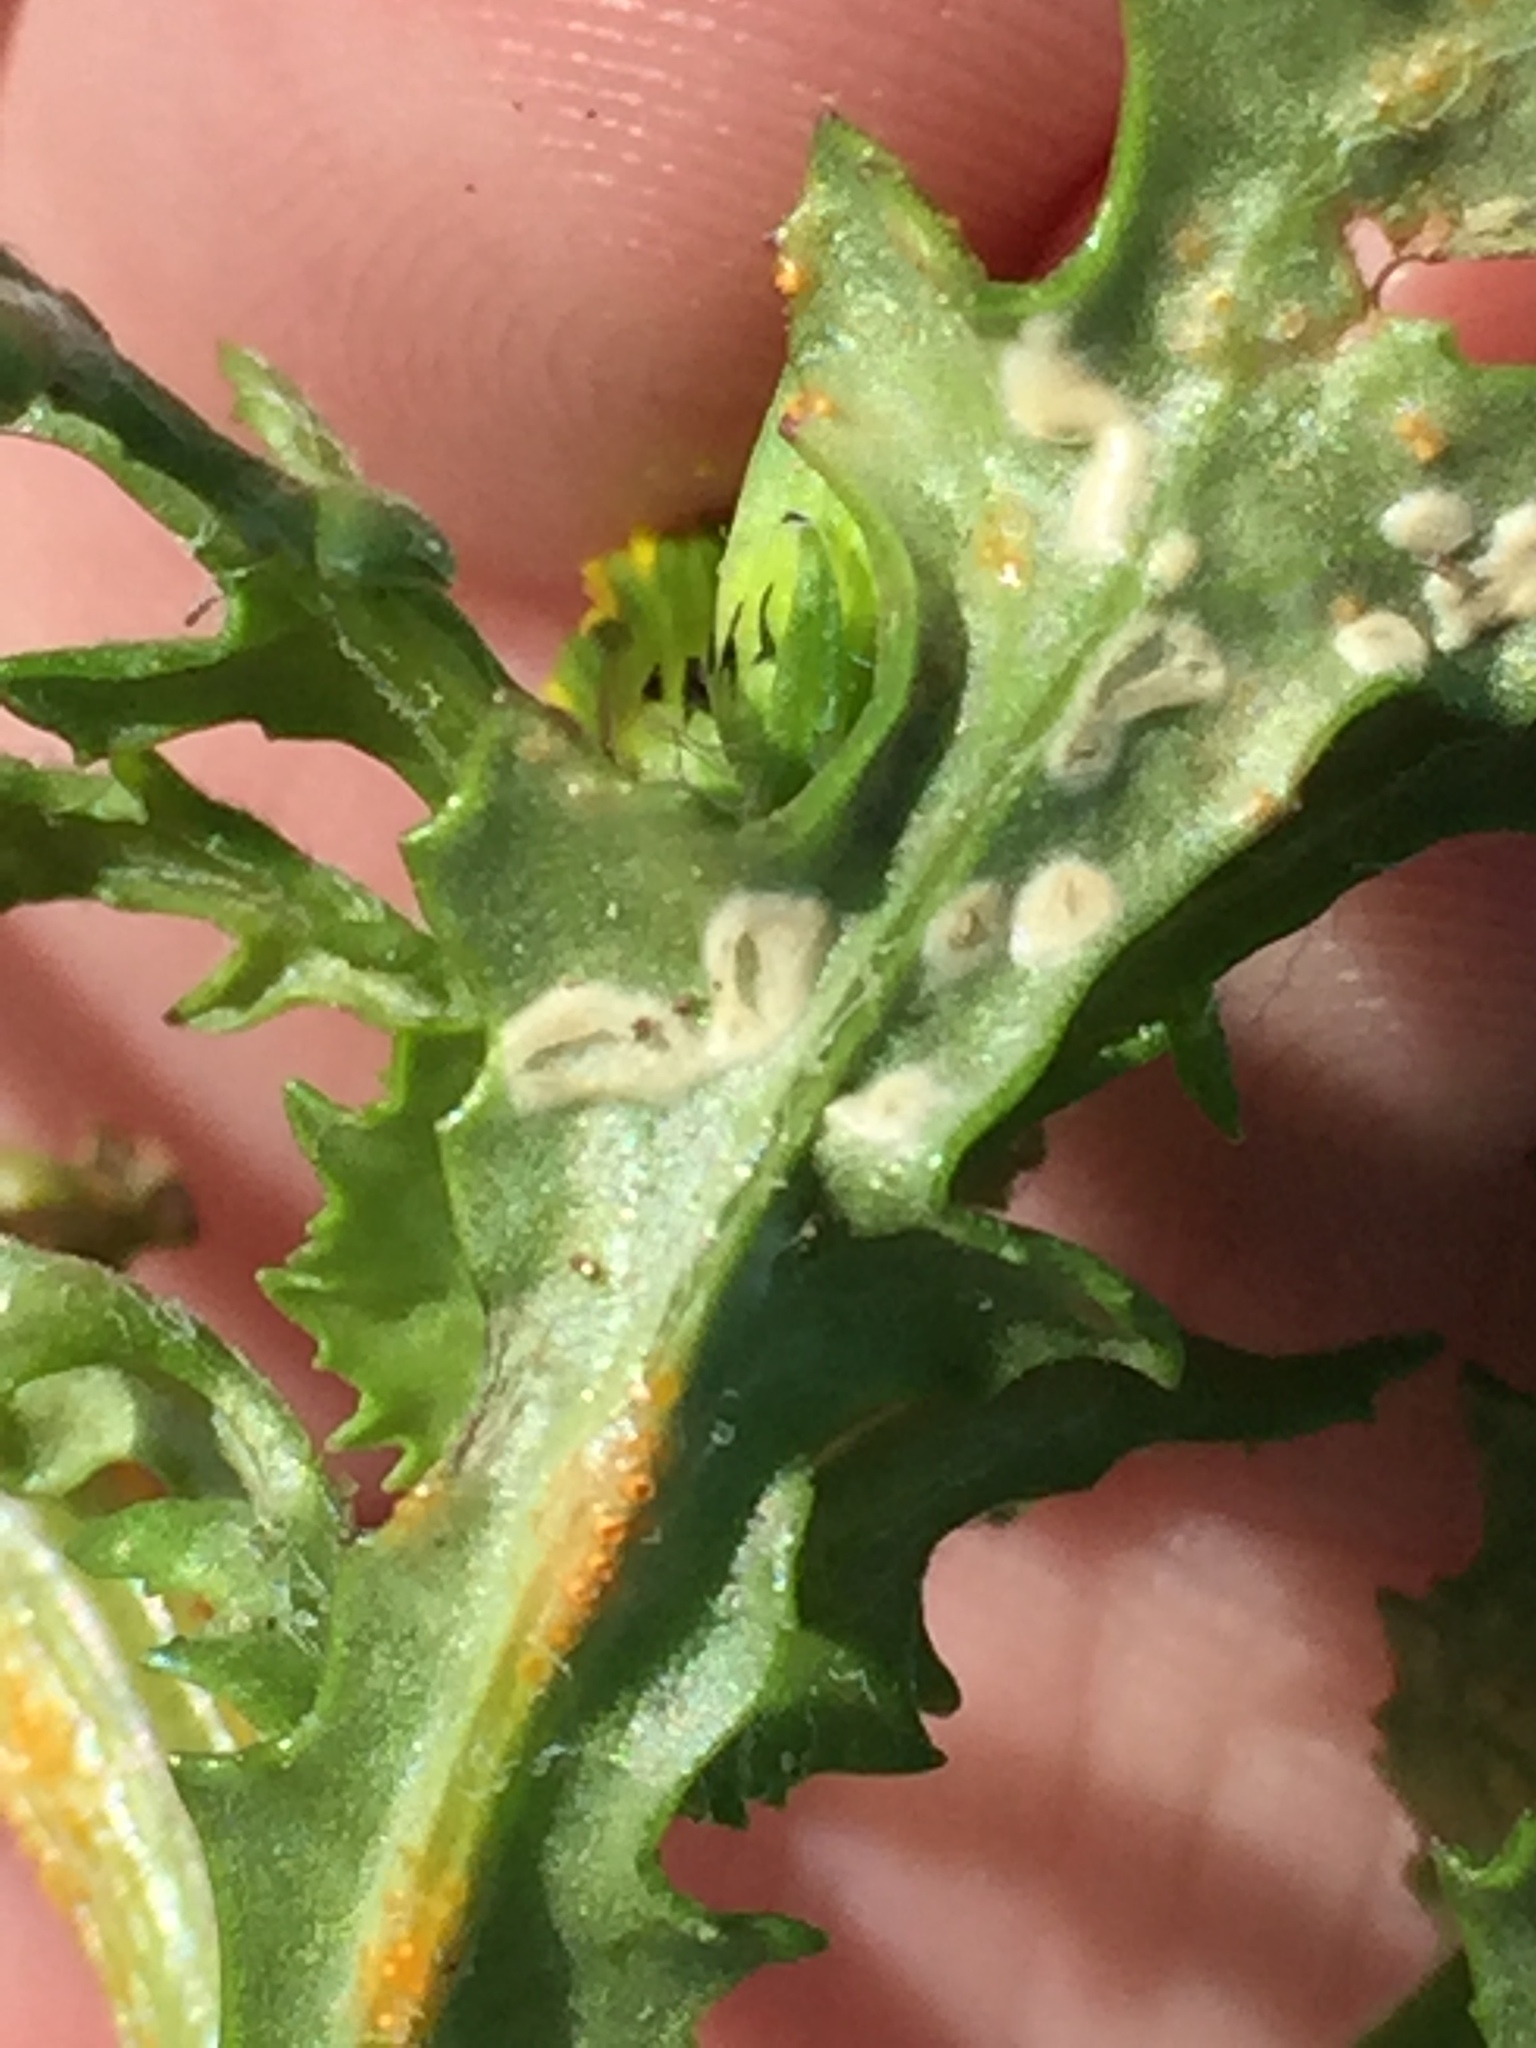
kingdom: Chromista
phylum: Oomycota
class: Peronosporea
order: Albuginales
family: Albuginaceae
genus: Pustula
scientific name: Pustula
